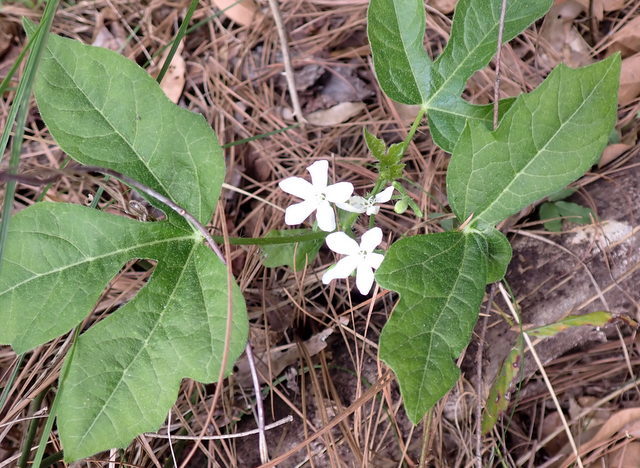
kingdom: Plantae
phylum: Tracheophyta
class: Magnoliopsida
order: Malpighiales
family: Euphorbiaceae
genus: Cnidoscolus
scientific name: Cnidoscolus stimulosus
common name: Bull-nettle
